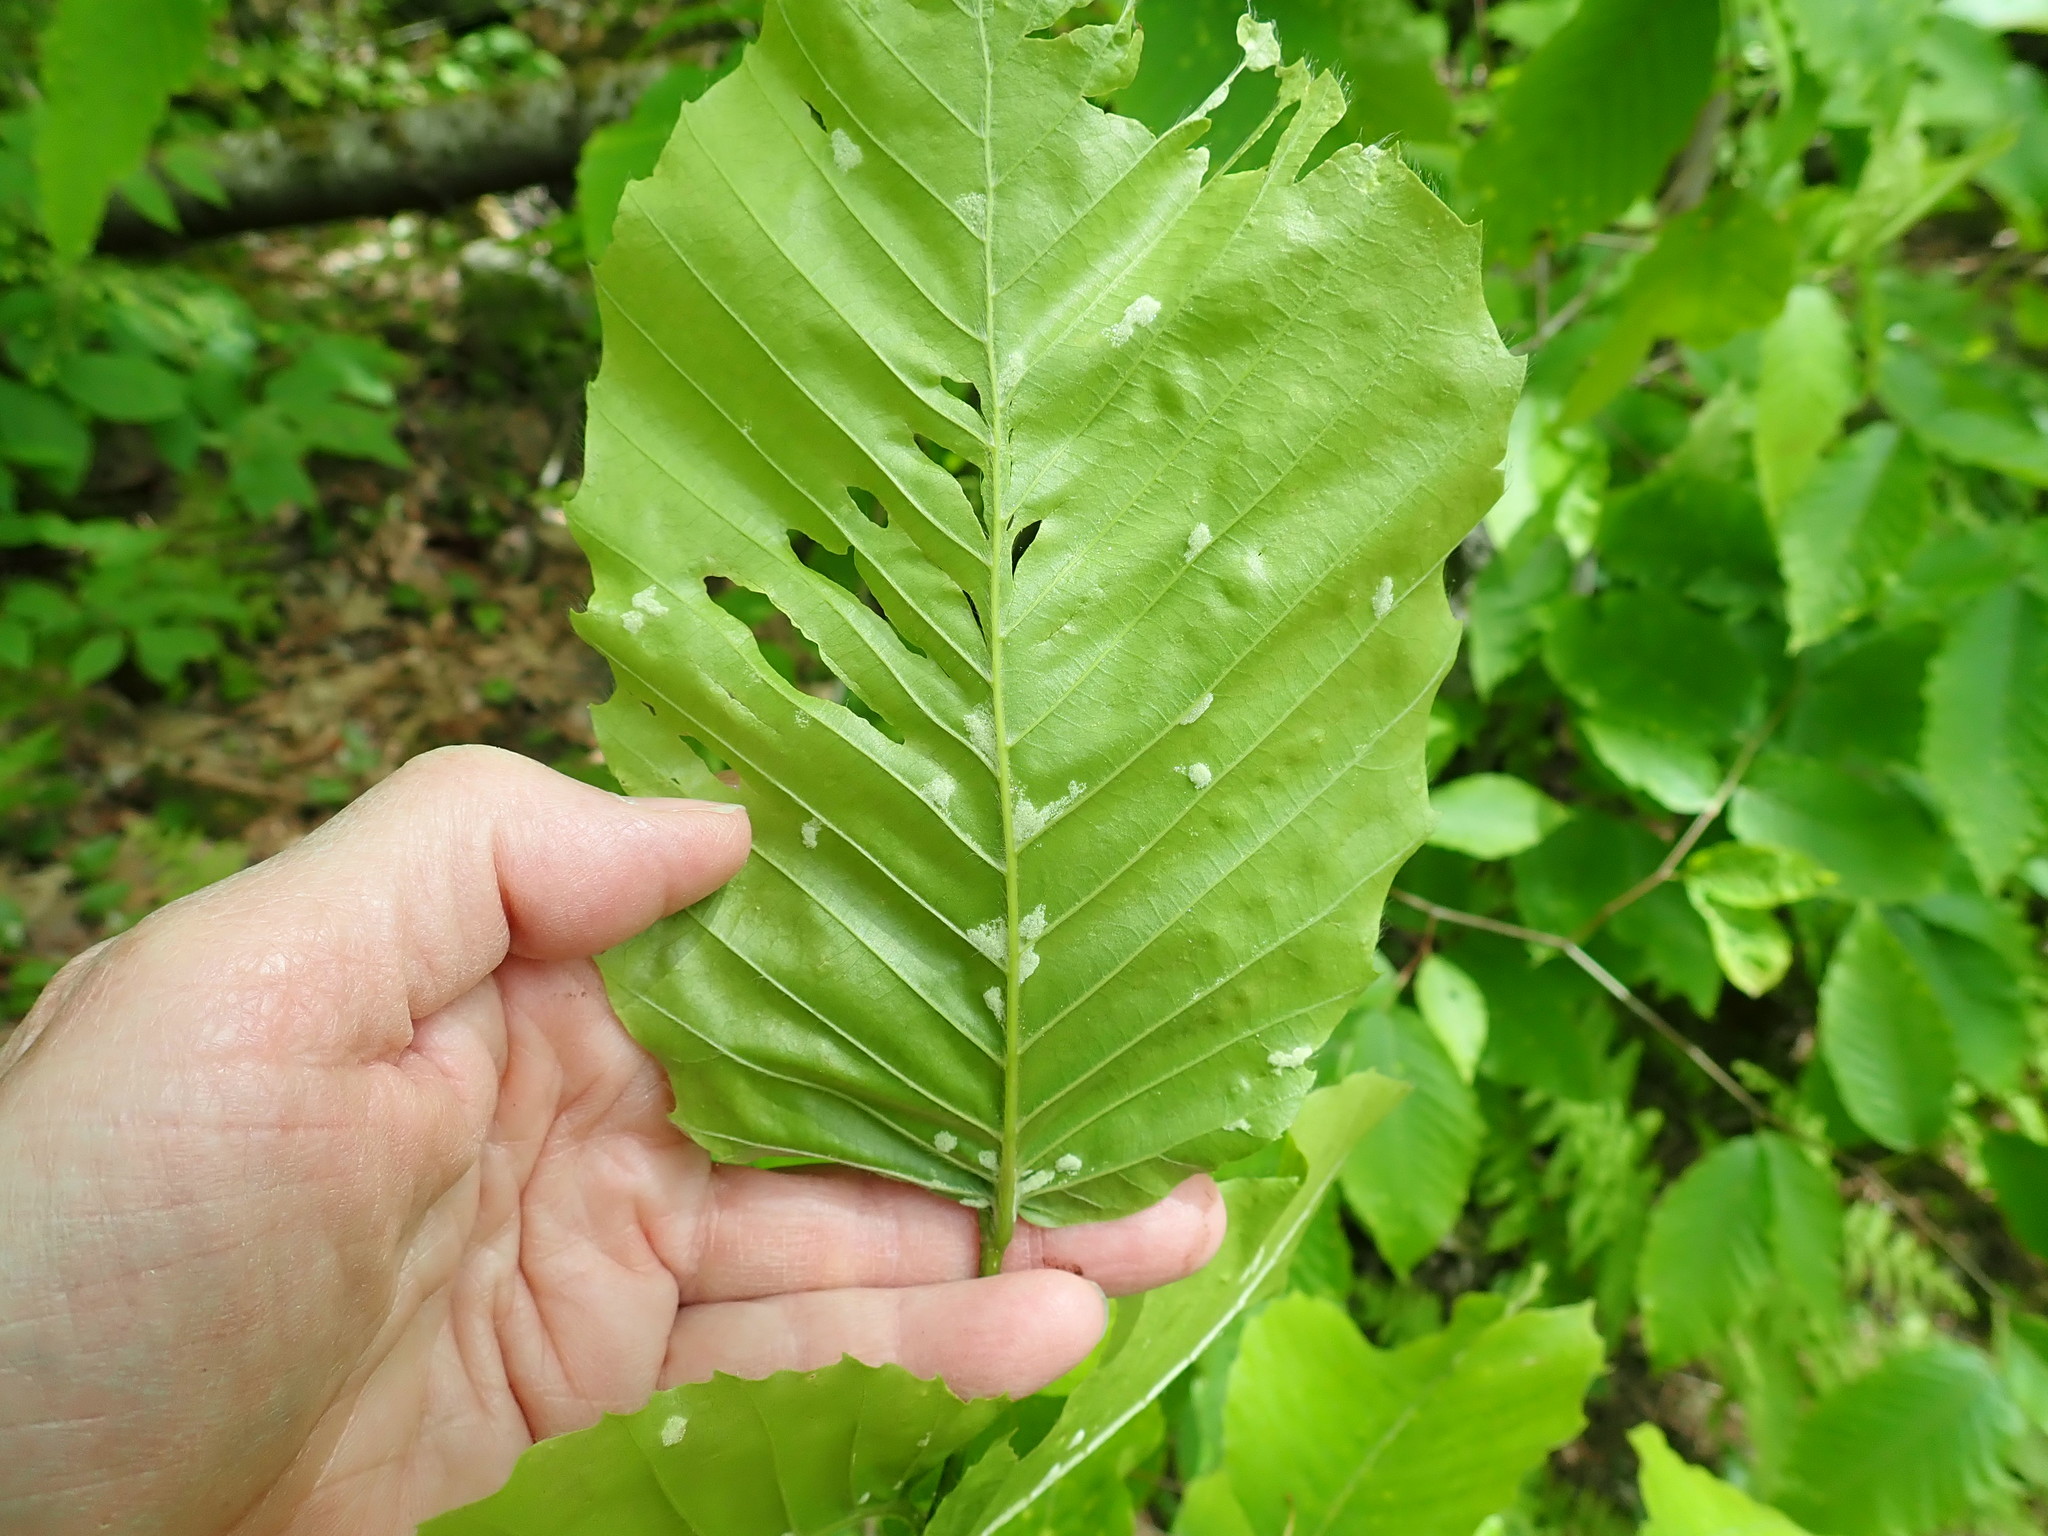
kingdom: Animalia
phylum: Arthropoda
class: Arachnida
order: Trombidiformes
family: Eriophyidae
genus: Acalitus
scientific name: Acalitus
